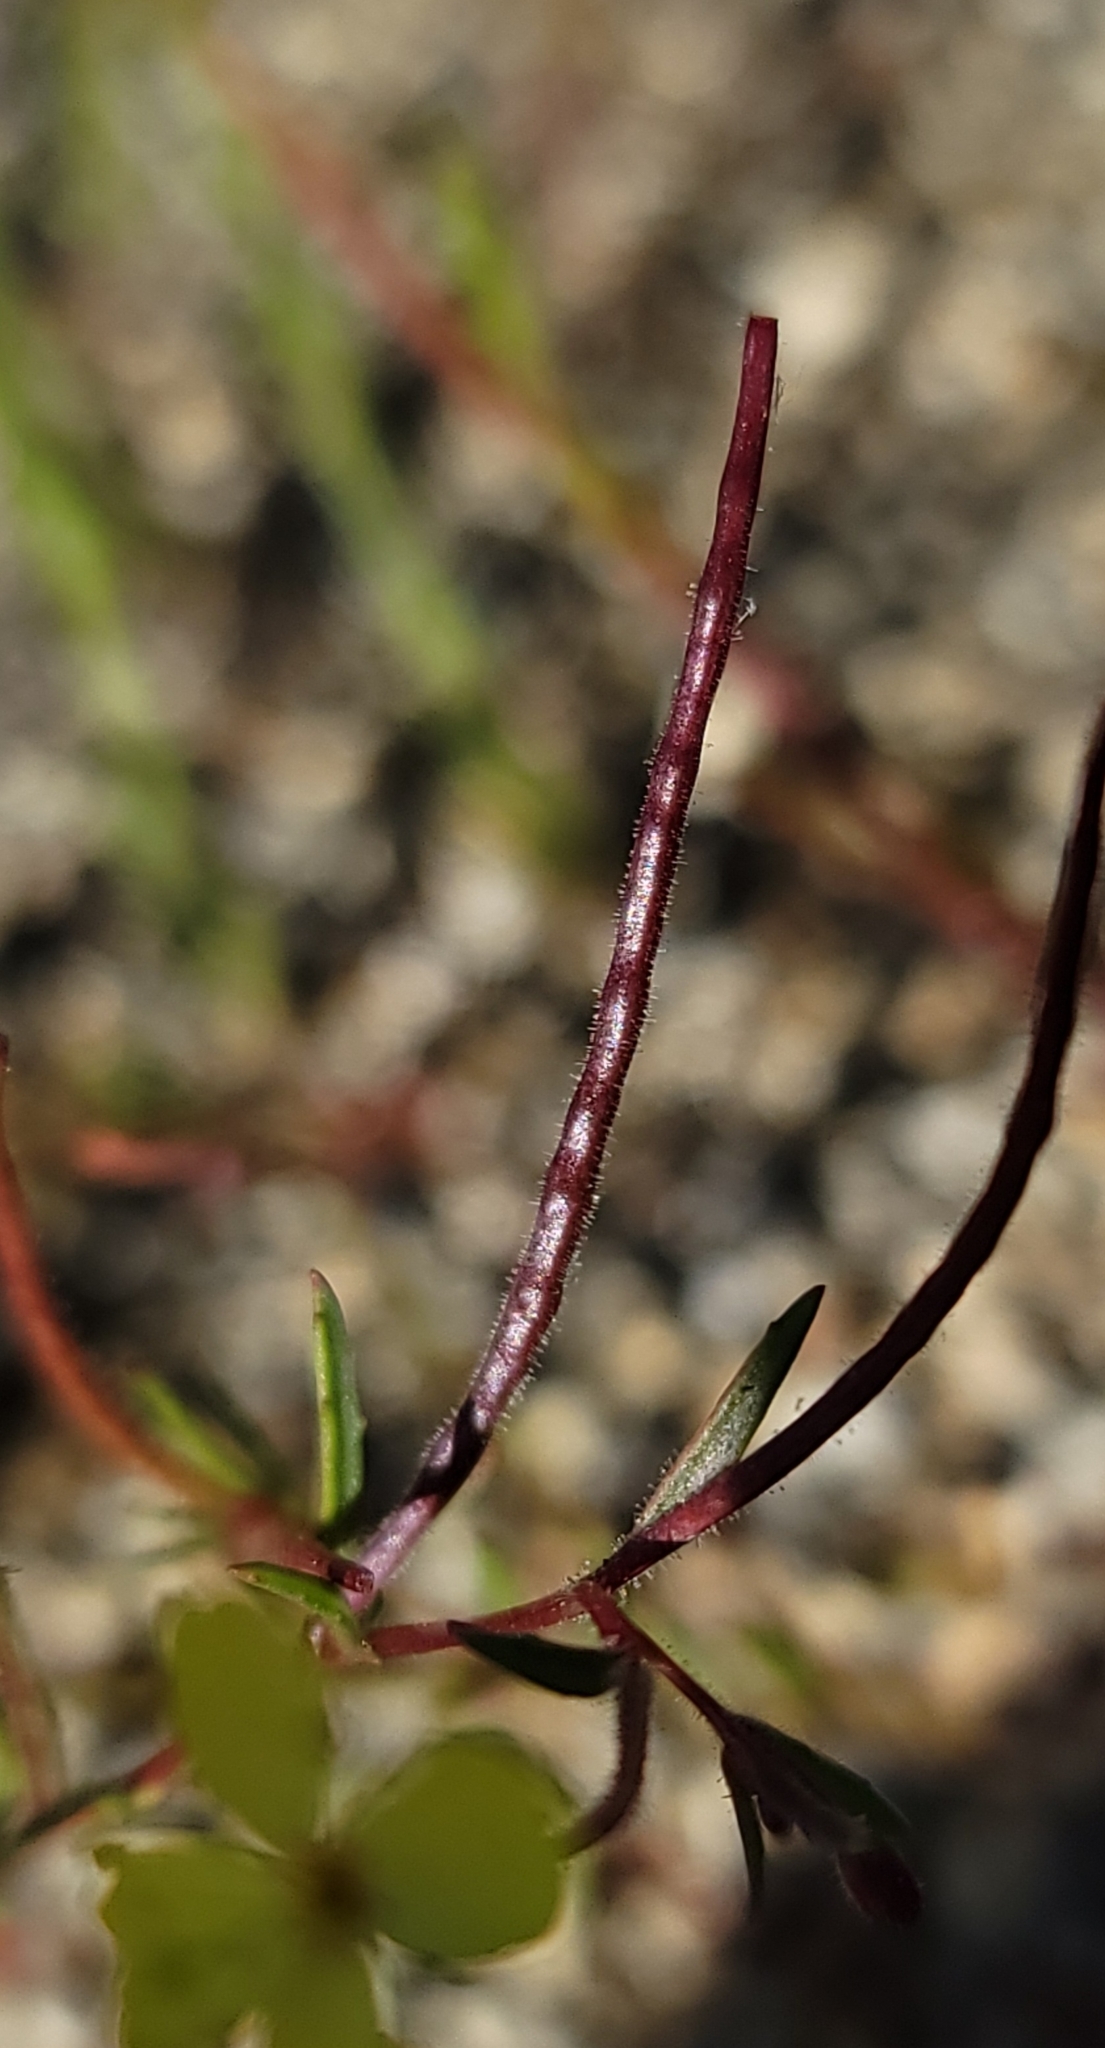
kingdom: Plantae
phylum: Tracheophyta
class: Magnoliopsida
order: Myrtales
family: Onagraceae
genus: Camissonia
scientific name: Camissonia sierrae
